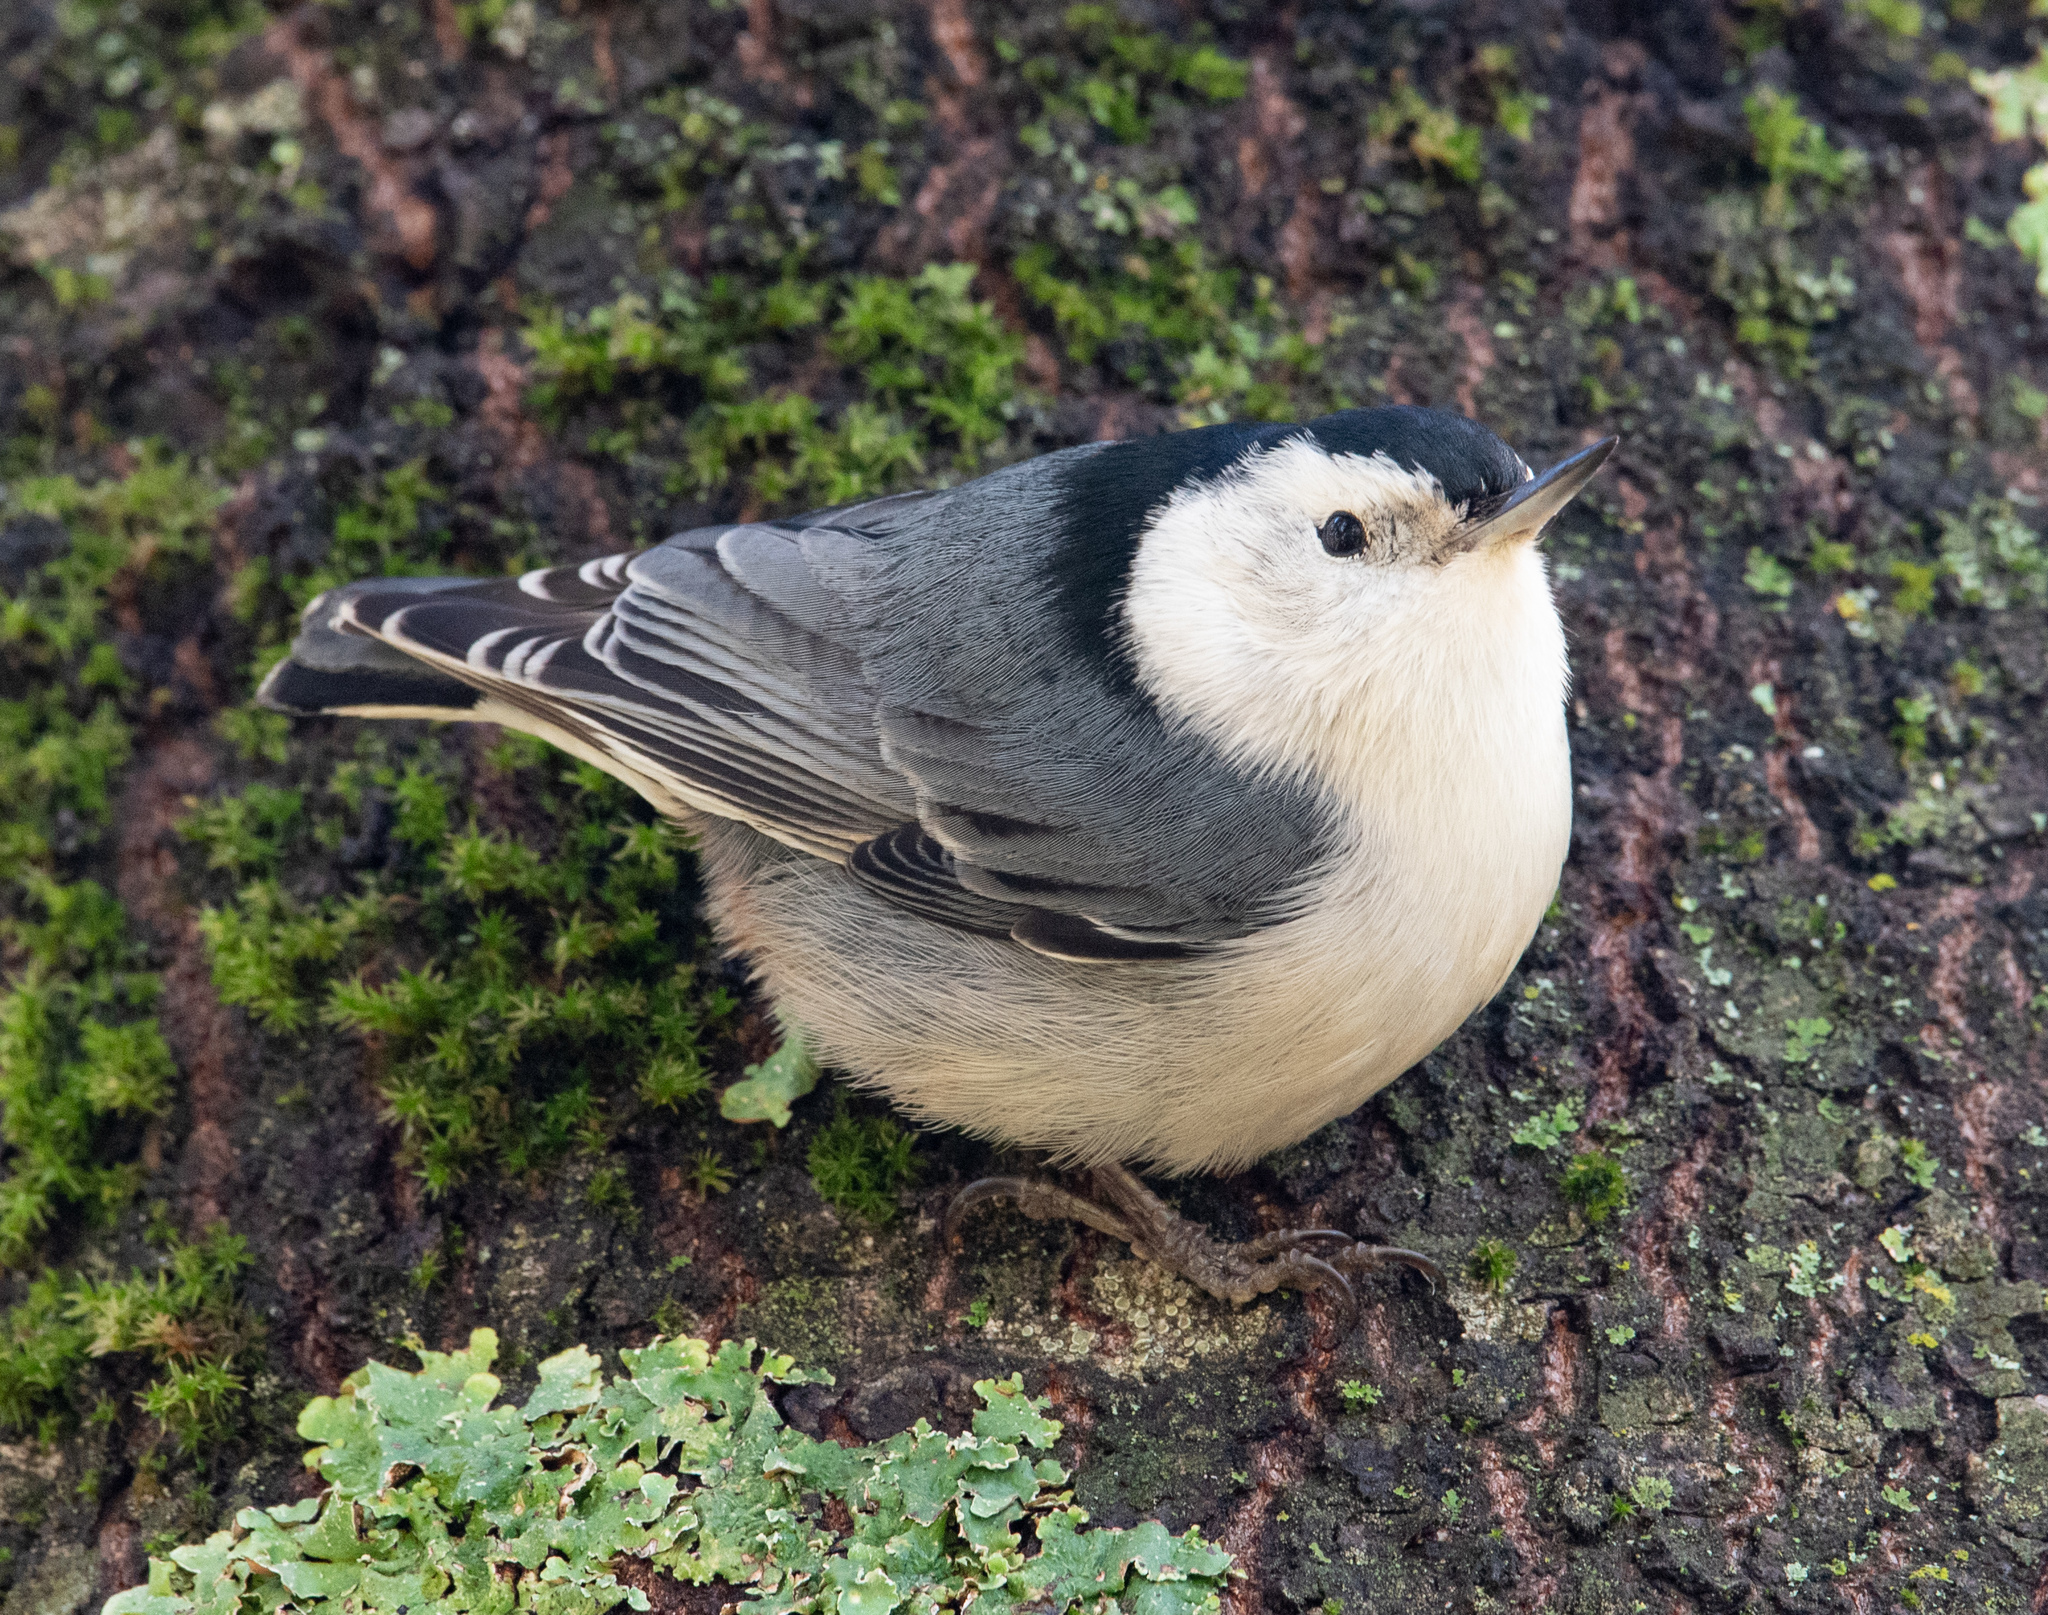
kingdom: Animalia
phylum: Chordata
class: Aves
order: Passeriformes
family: Sittidae
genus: Sitta
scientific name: Sitta carolinensis
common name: White-breasted nuthatch
